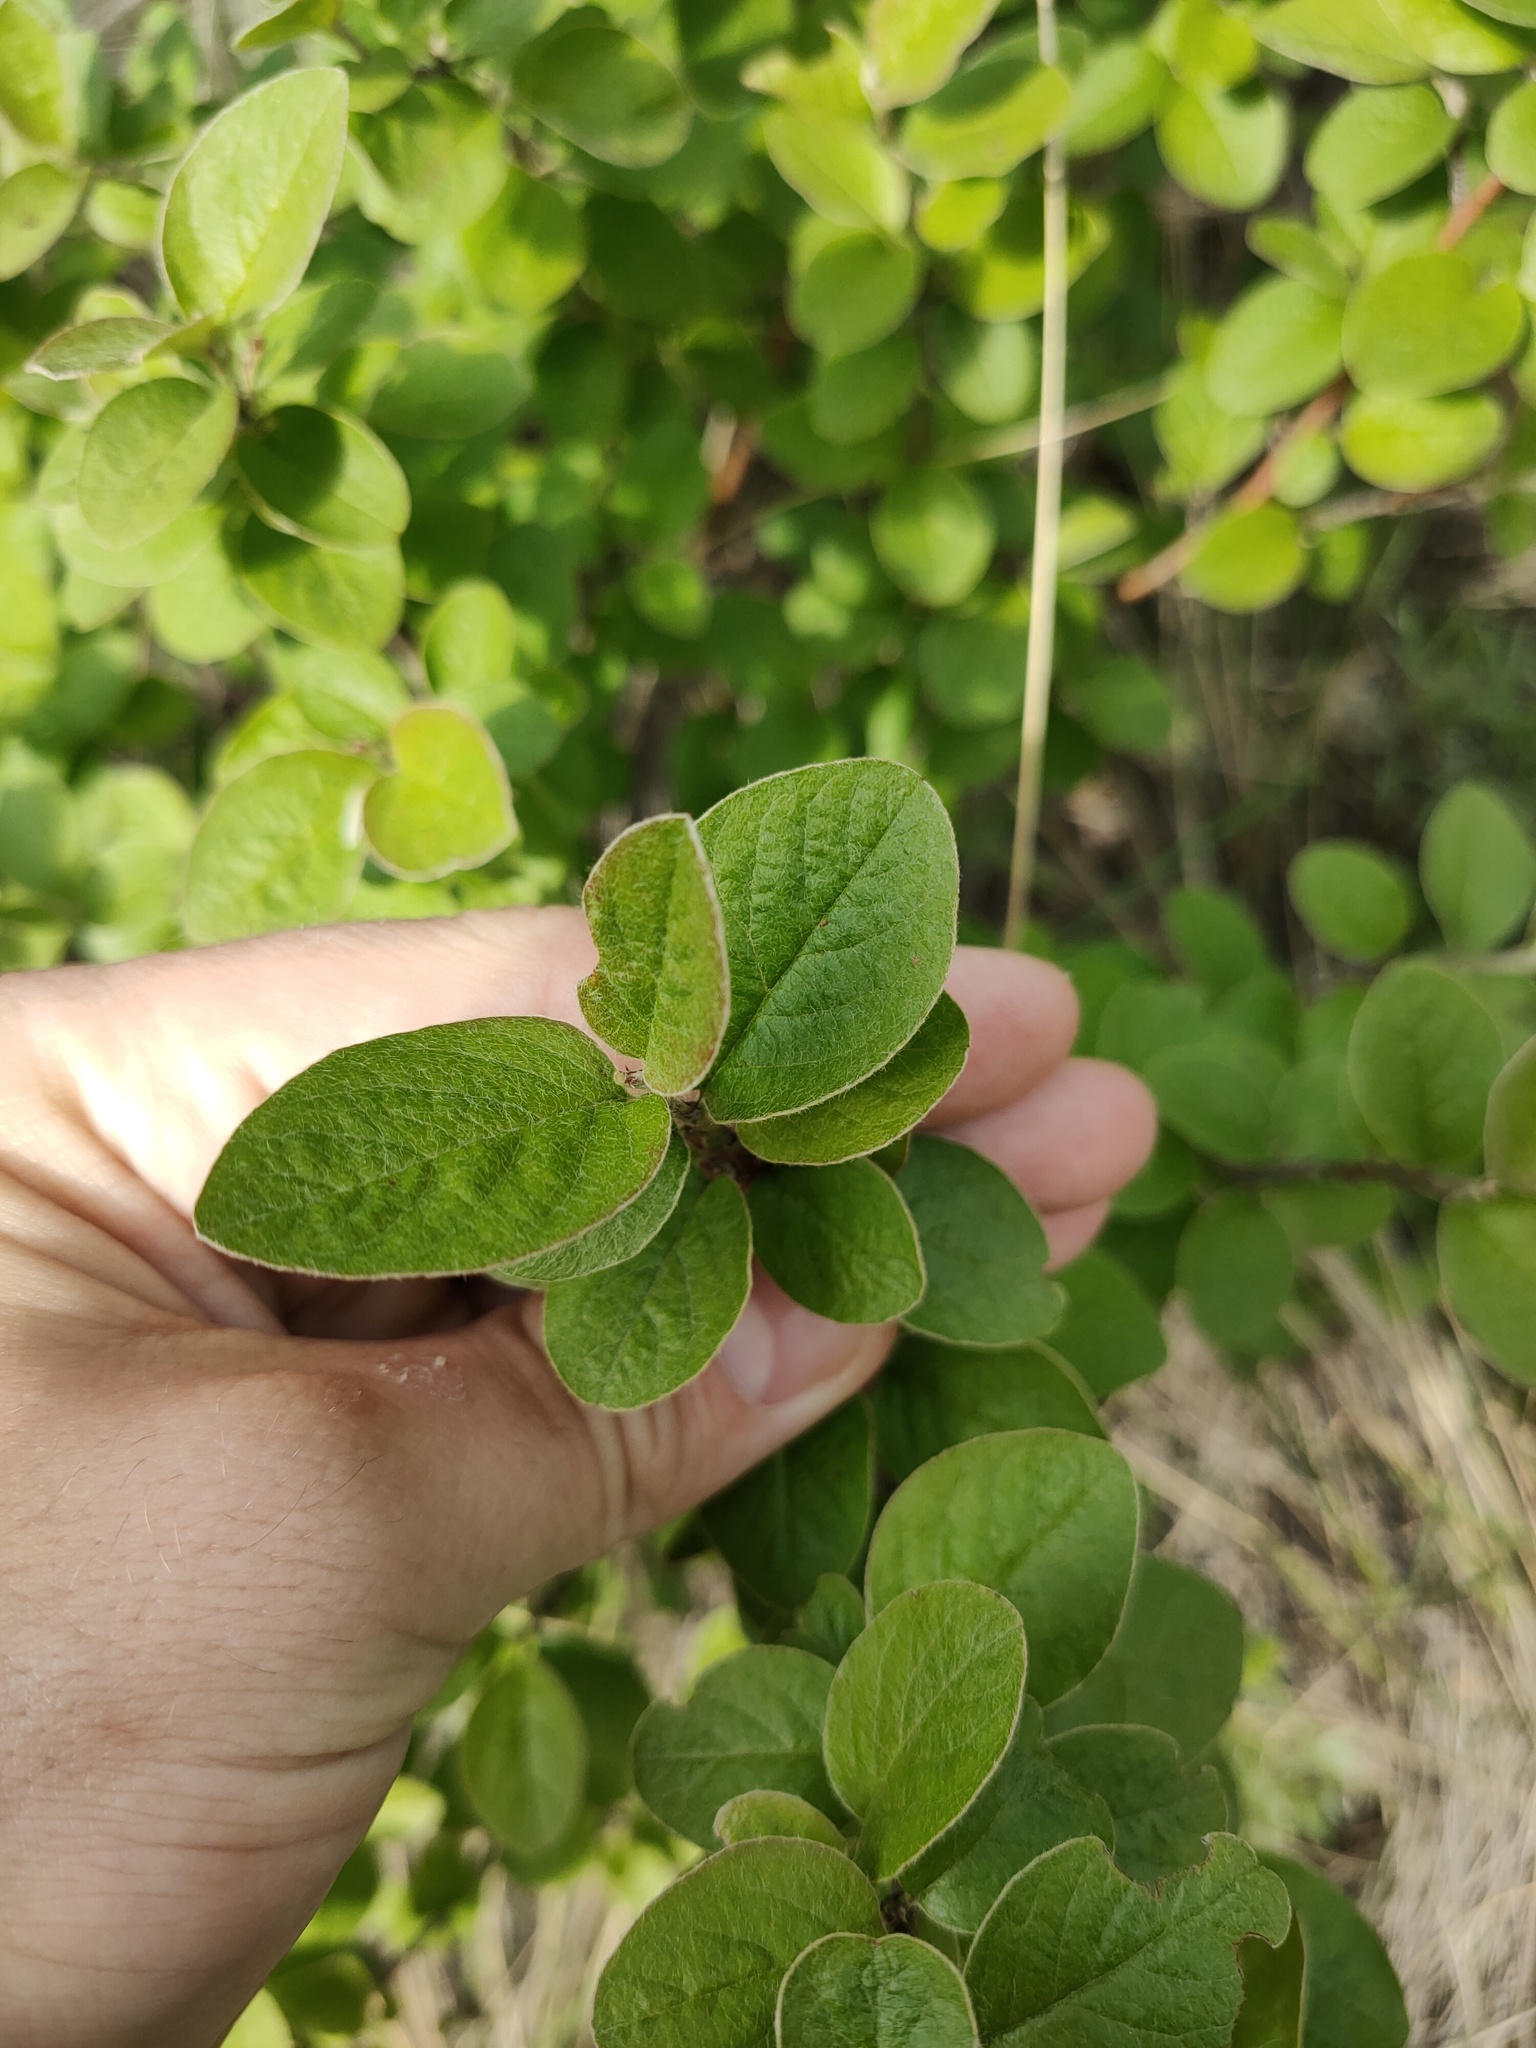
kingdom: Plantae
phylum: Tracheophyta
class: Magnoliopsida
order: Rosales
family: Rosaceae
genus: Cotoneaster
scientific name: Cotoneaster melanocarpus
